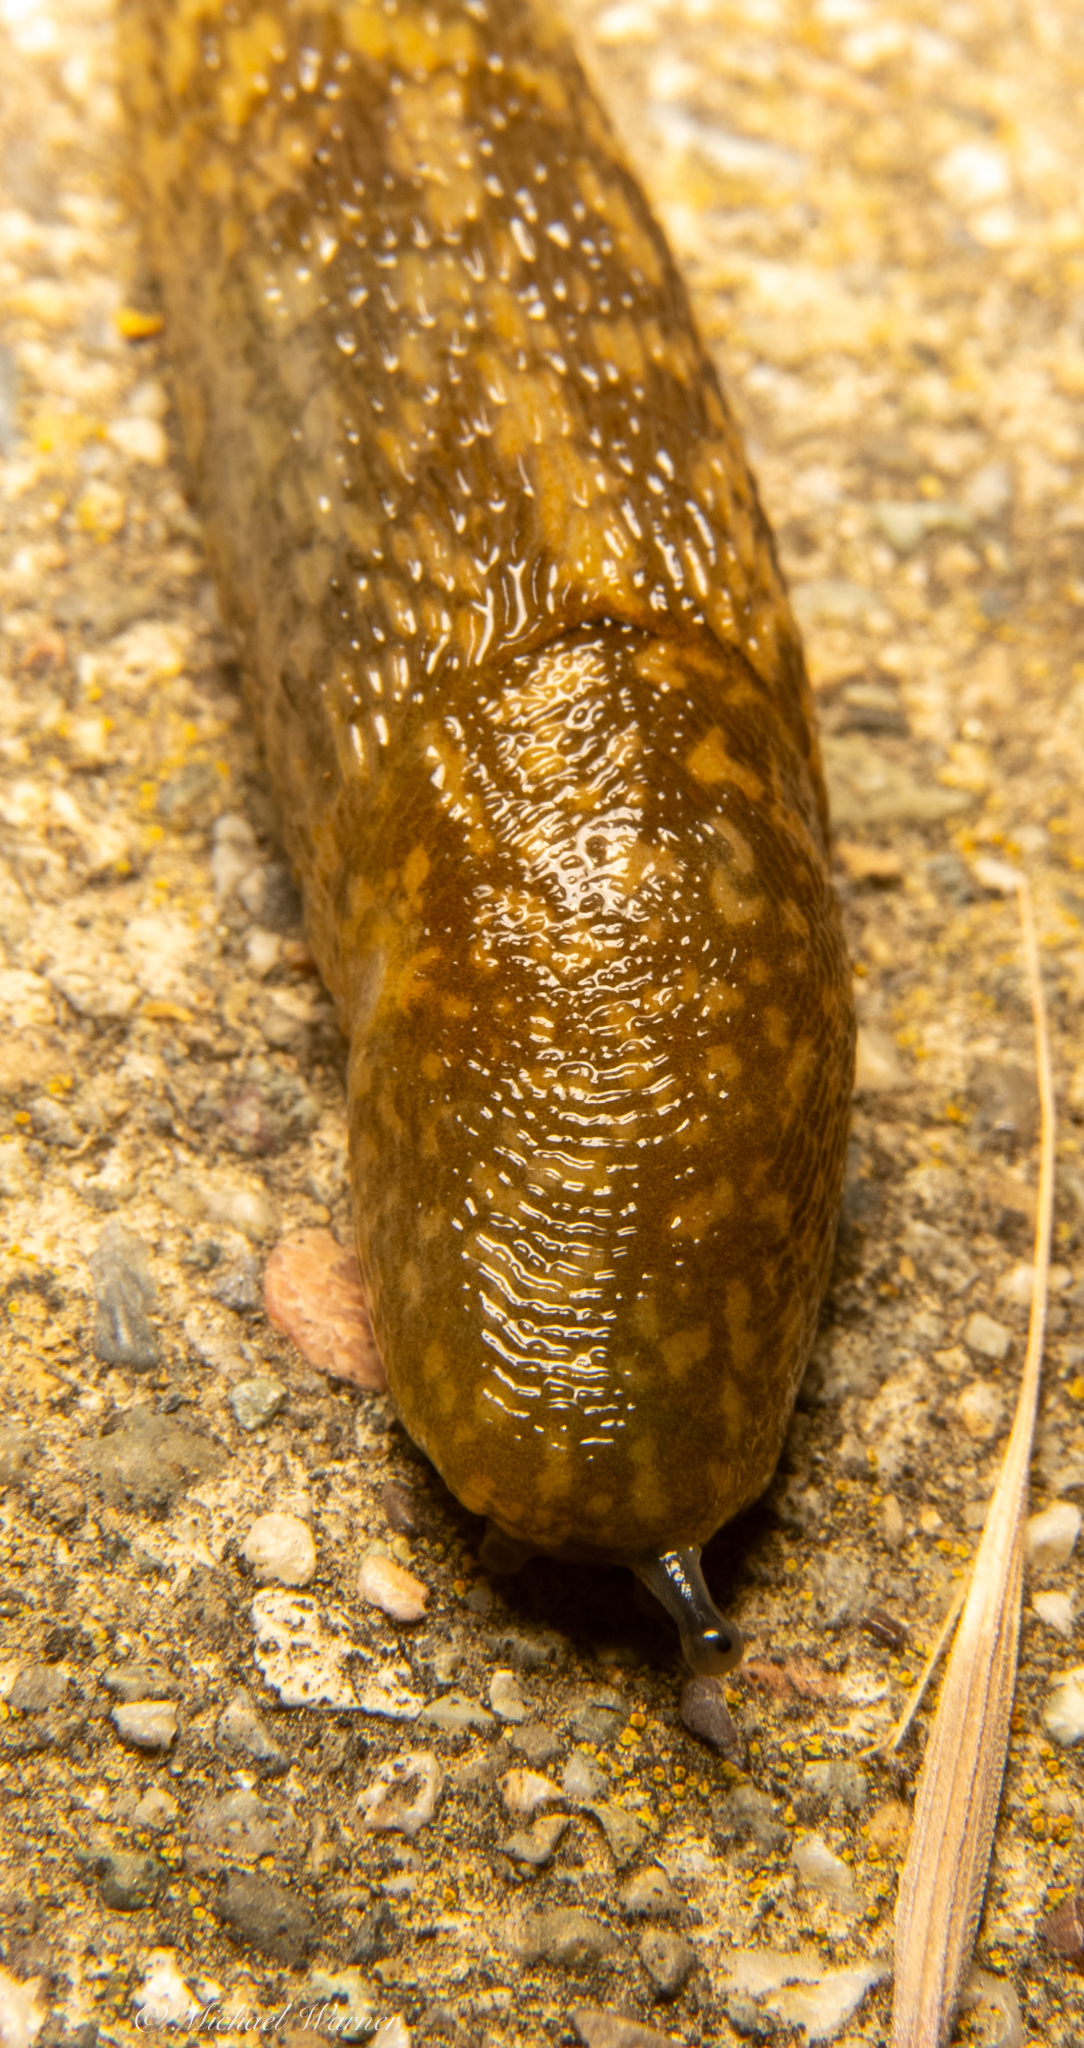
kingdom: Animalia
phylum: Mollusca
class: Gastropoda
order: Stylommatophora
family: Limacidae
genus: Limacus
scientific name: Limacus flavus
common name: Yellow gardenslug
